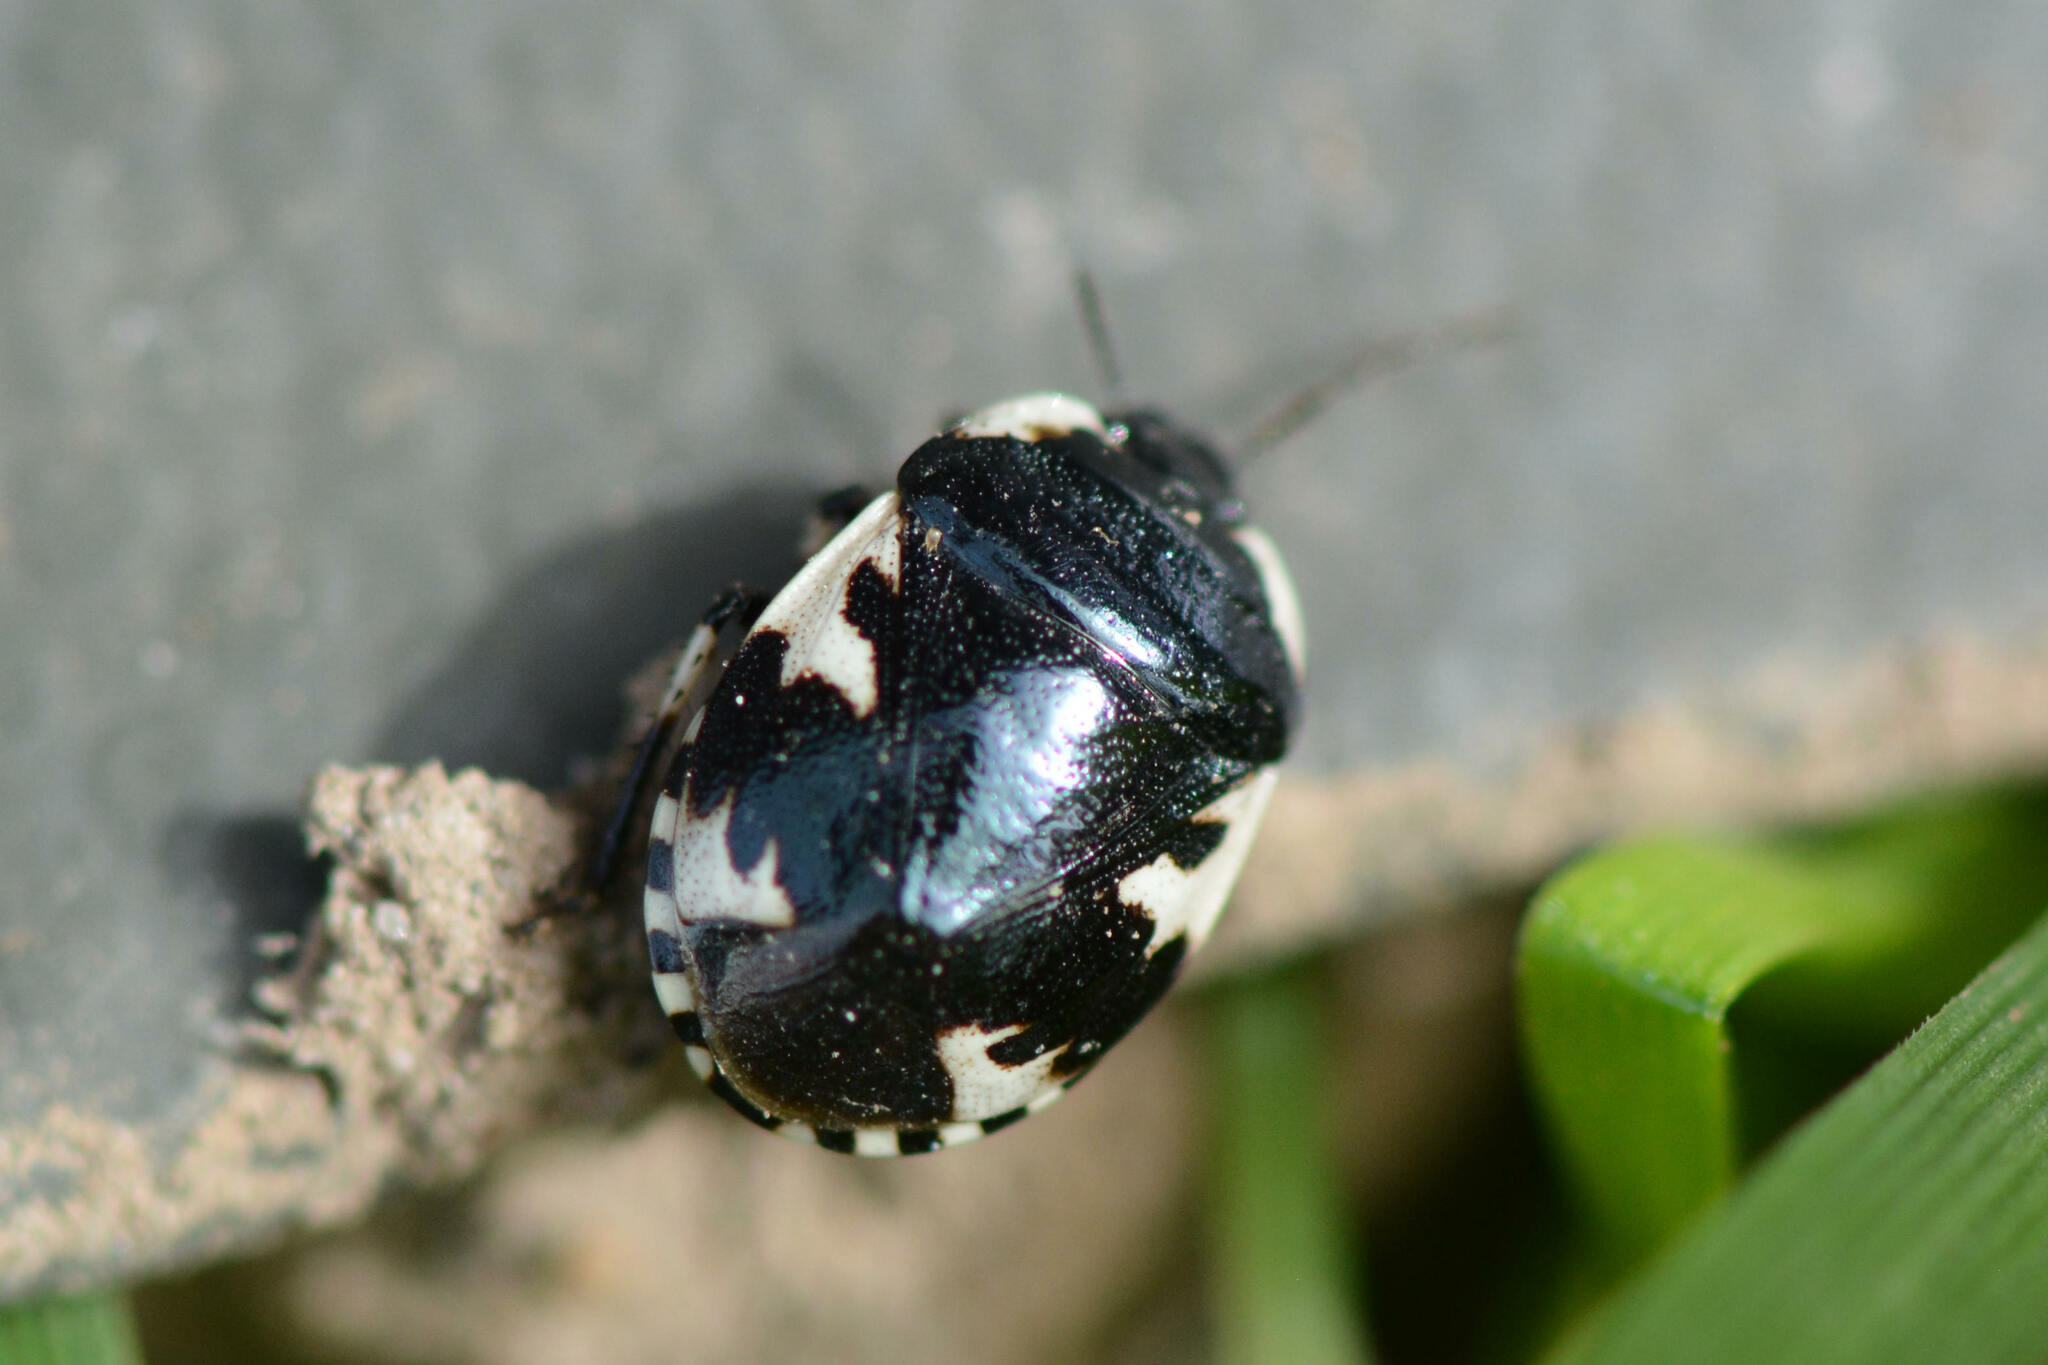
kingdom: Animalia
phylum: Arthropoda
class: Insecta
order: Hemiptera
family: Cydnidae
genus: Tritomegas
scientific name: Tritomegas rotundipennis
